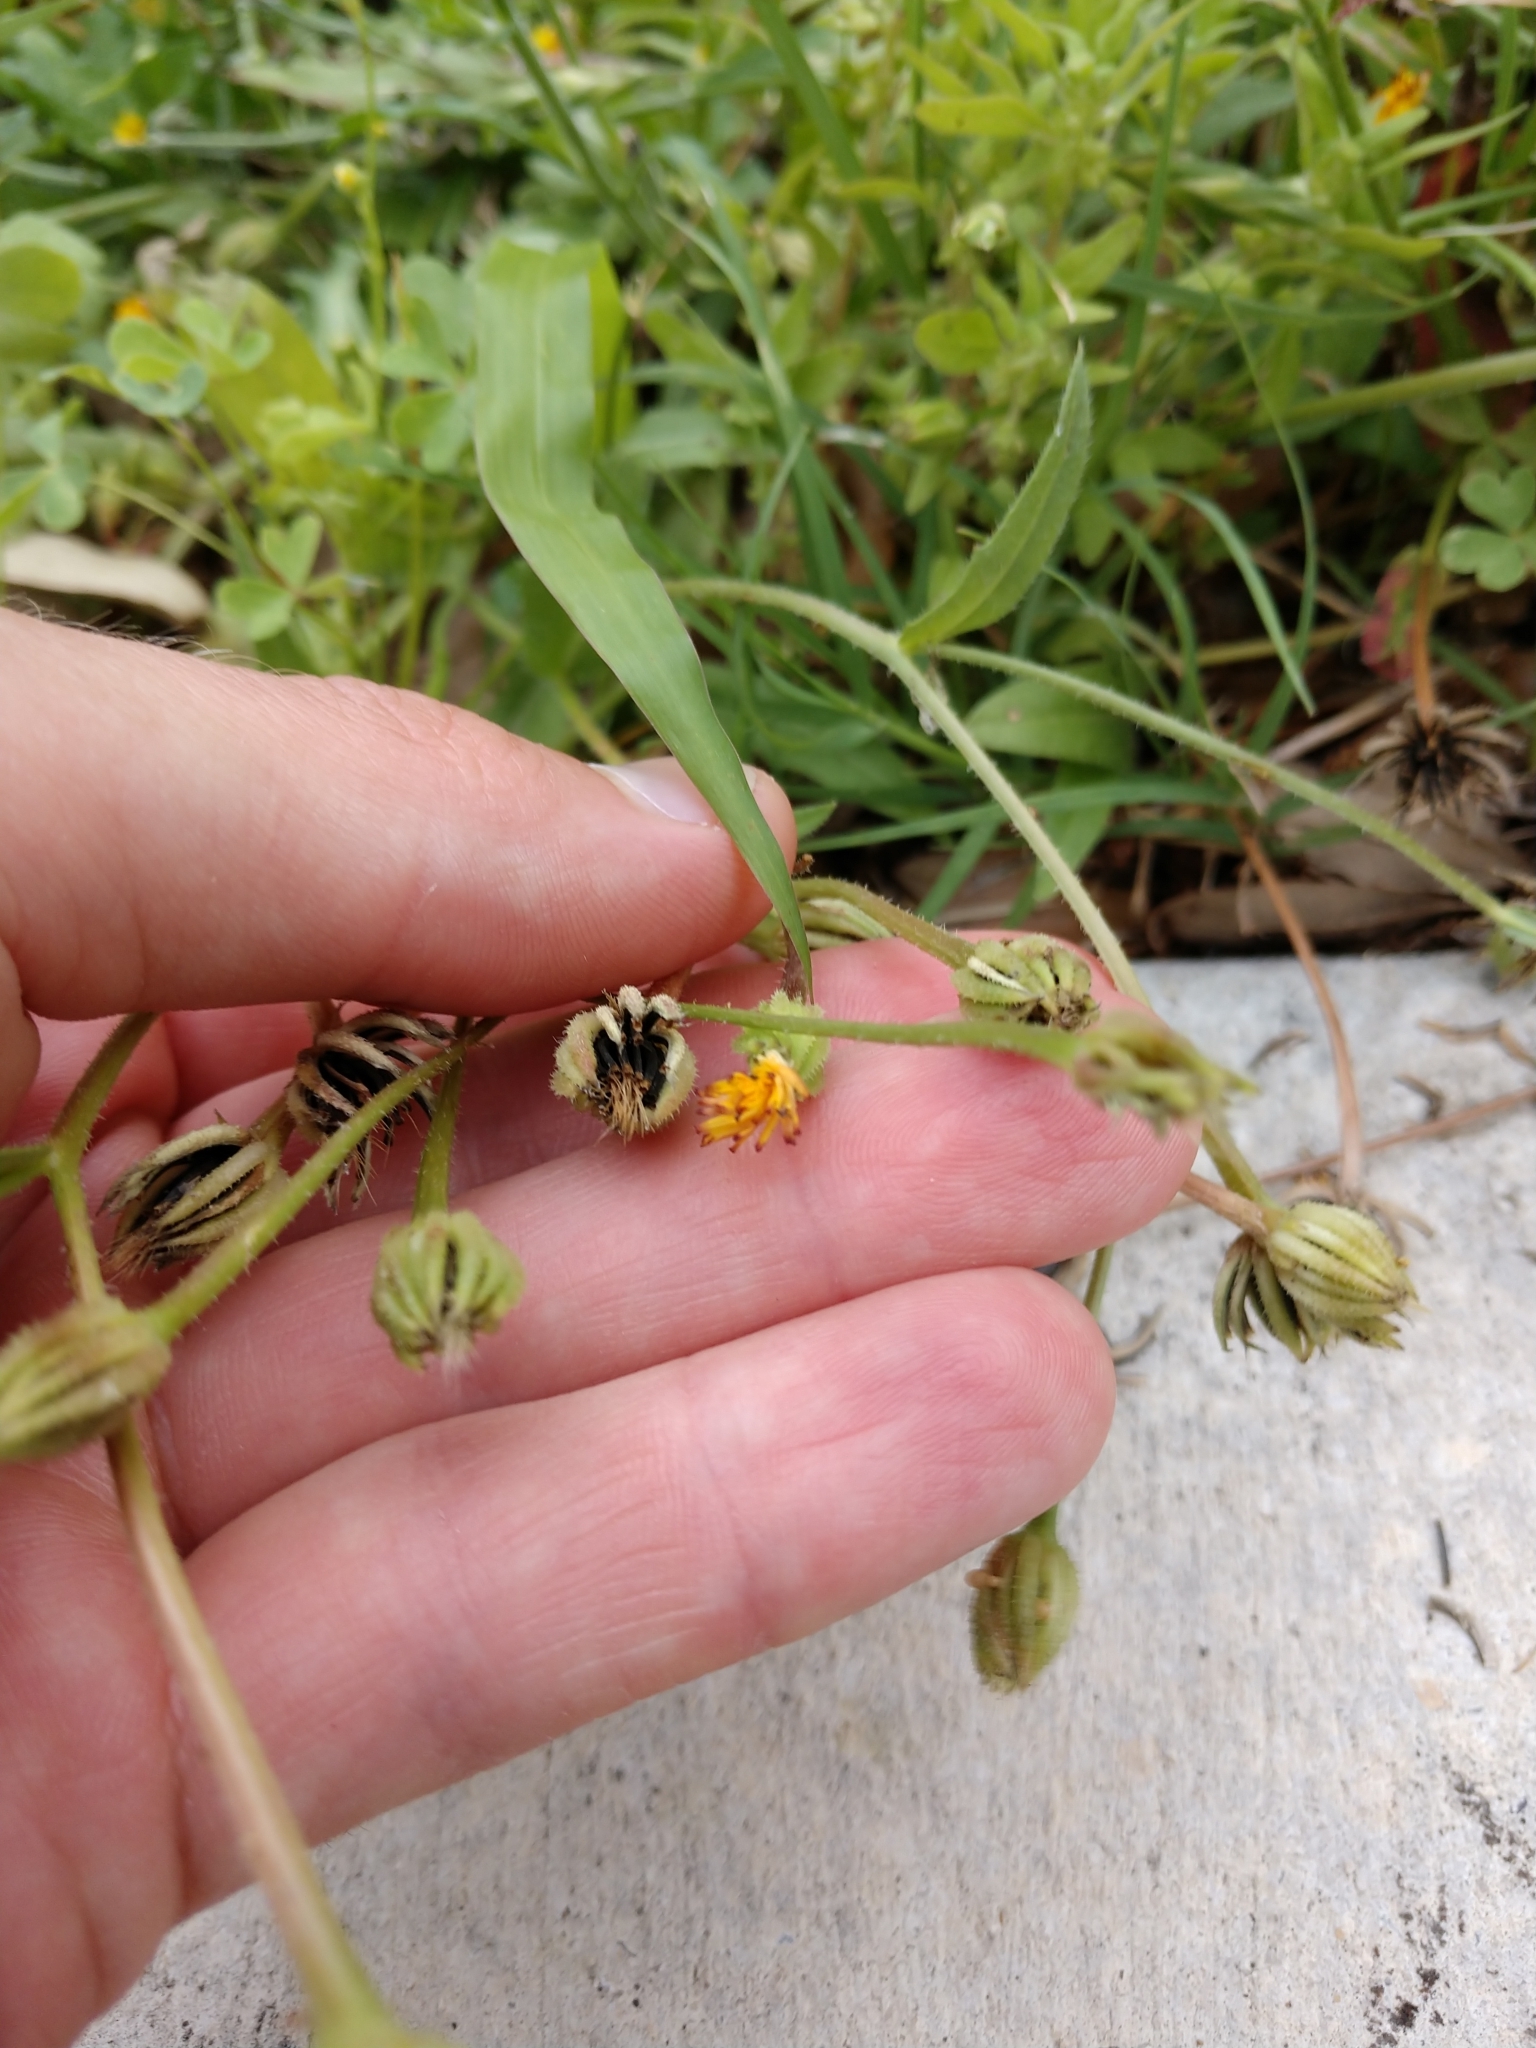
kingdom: Plantae
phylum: Tracheophyta
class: Magnoliopsida
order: Asterales
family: Asteraceae
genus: Hedypnois
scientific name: Hedypnois rhagadioloides
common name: Cretan weed
